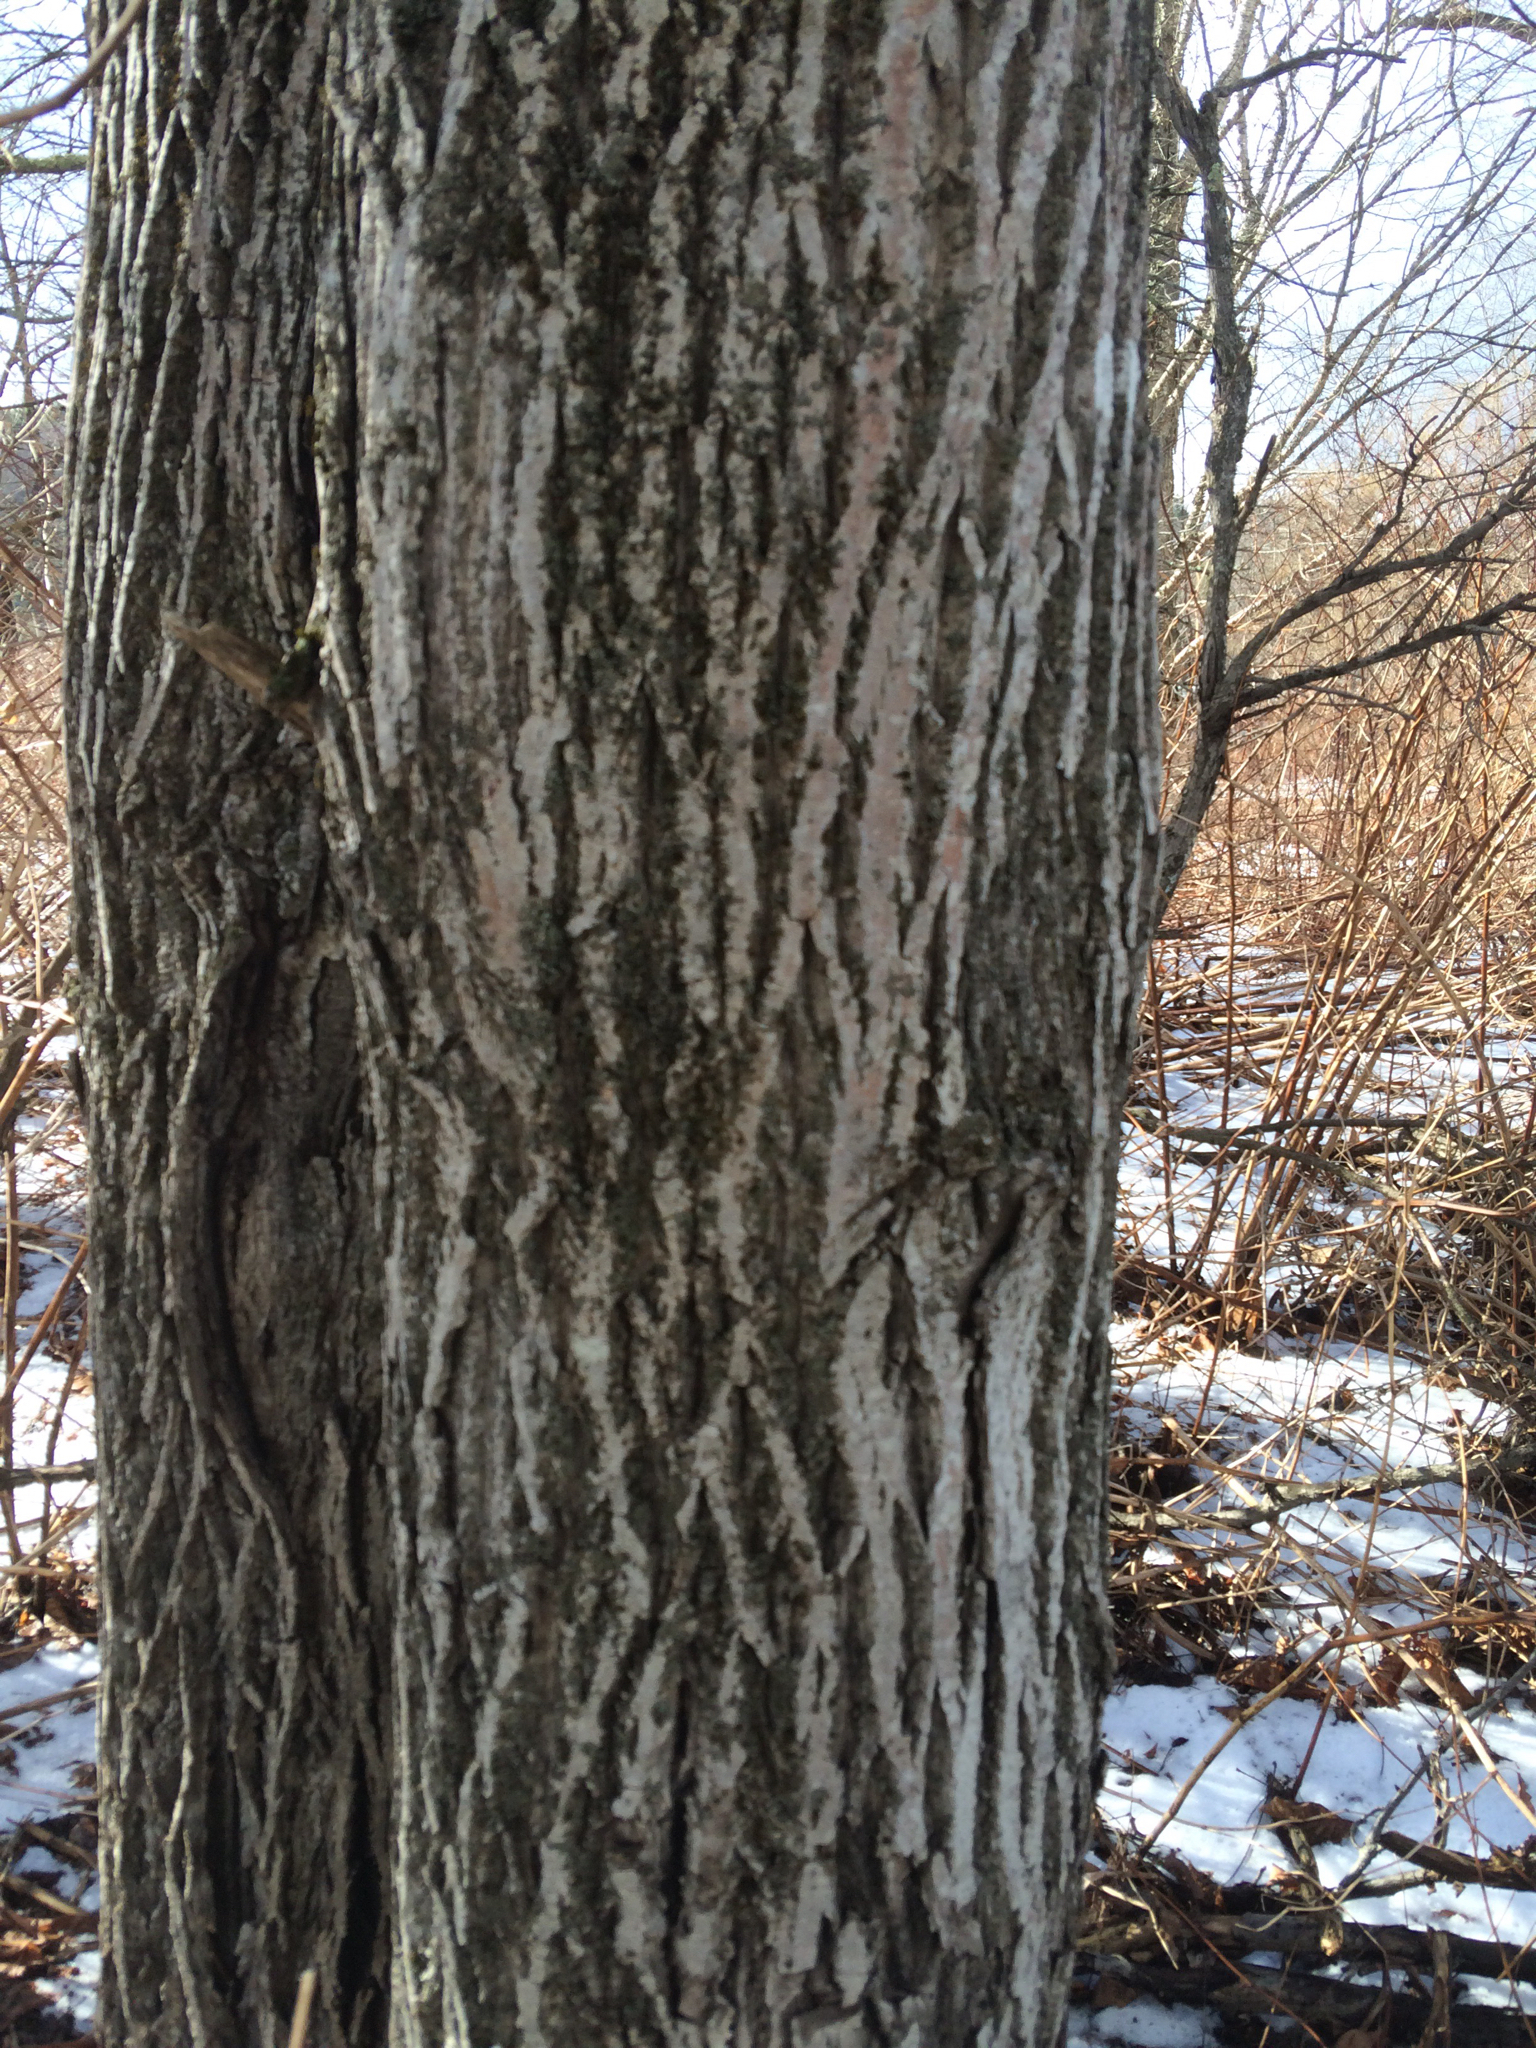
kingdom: Plantae
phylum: Tracheophyta
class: Magnoliopsida
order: Fagales
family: Juglandaceae
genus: Juglans
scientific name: Juglans cinerea
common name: Butternut
